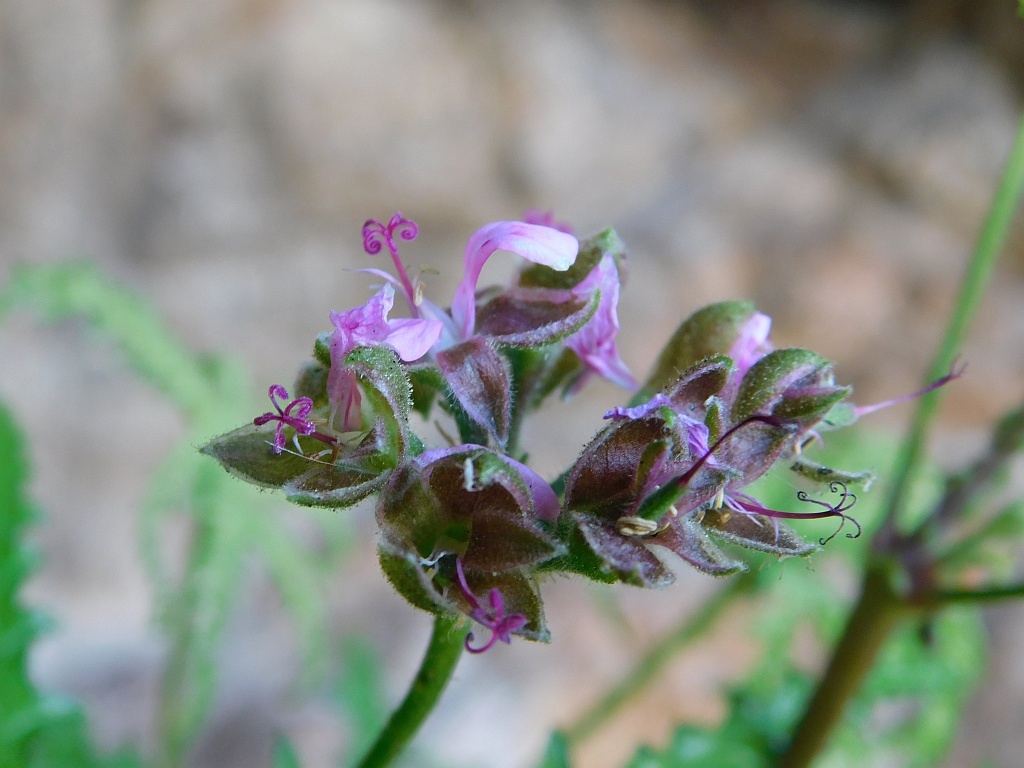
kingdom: Plantae
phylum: Tracheophyta
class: Magnoliopsida
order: Geraniales
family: Geraniaceae
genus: Pelargonium
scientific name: Pelargonium glutinosum
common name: Pheasant-foot geranium
